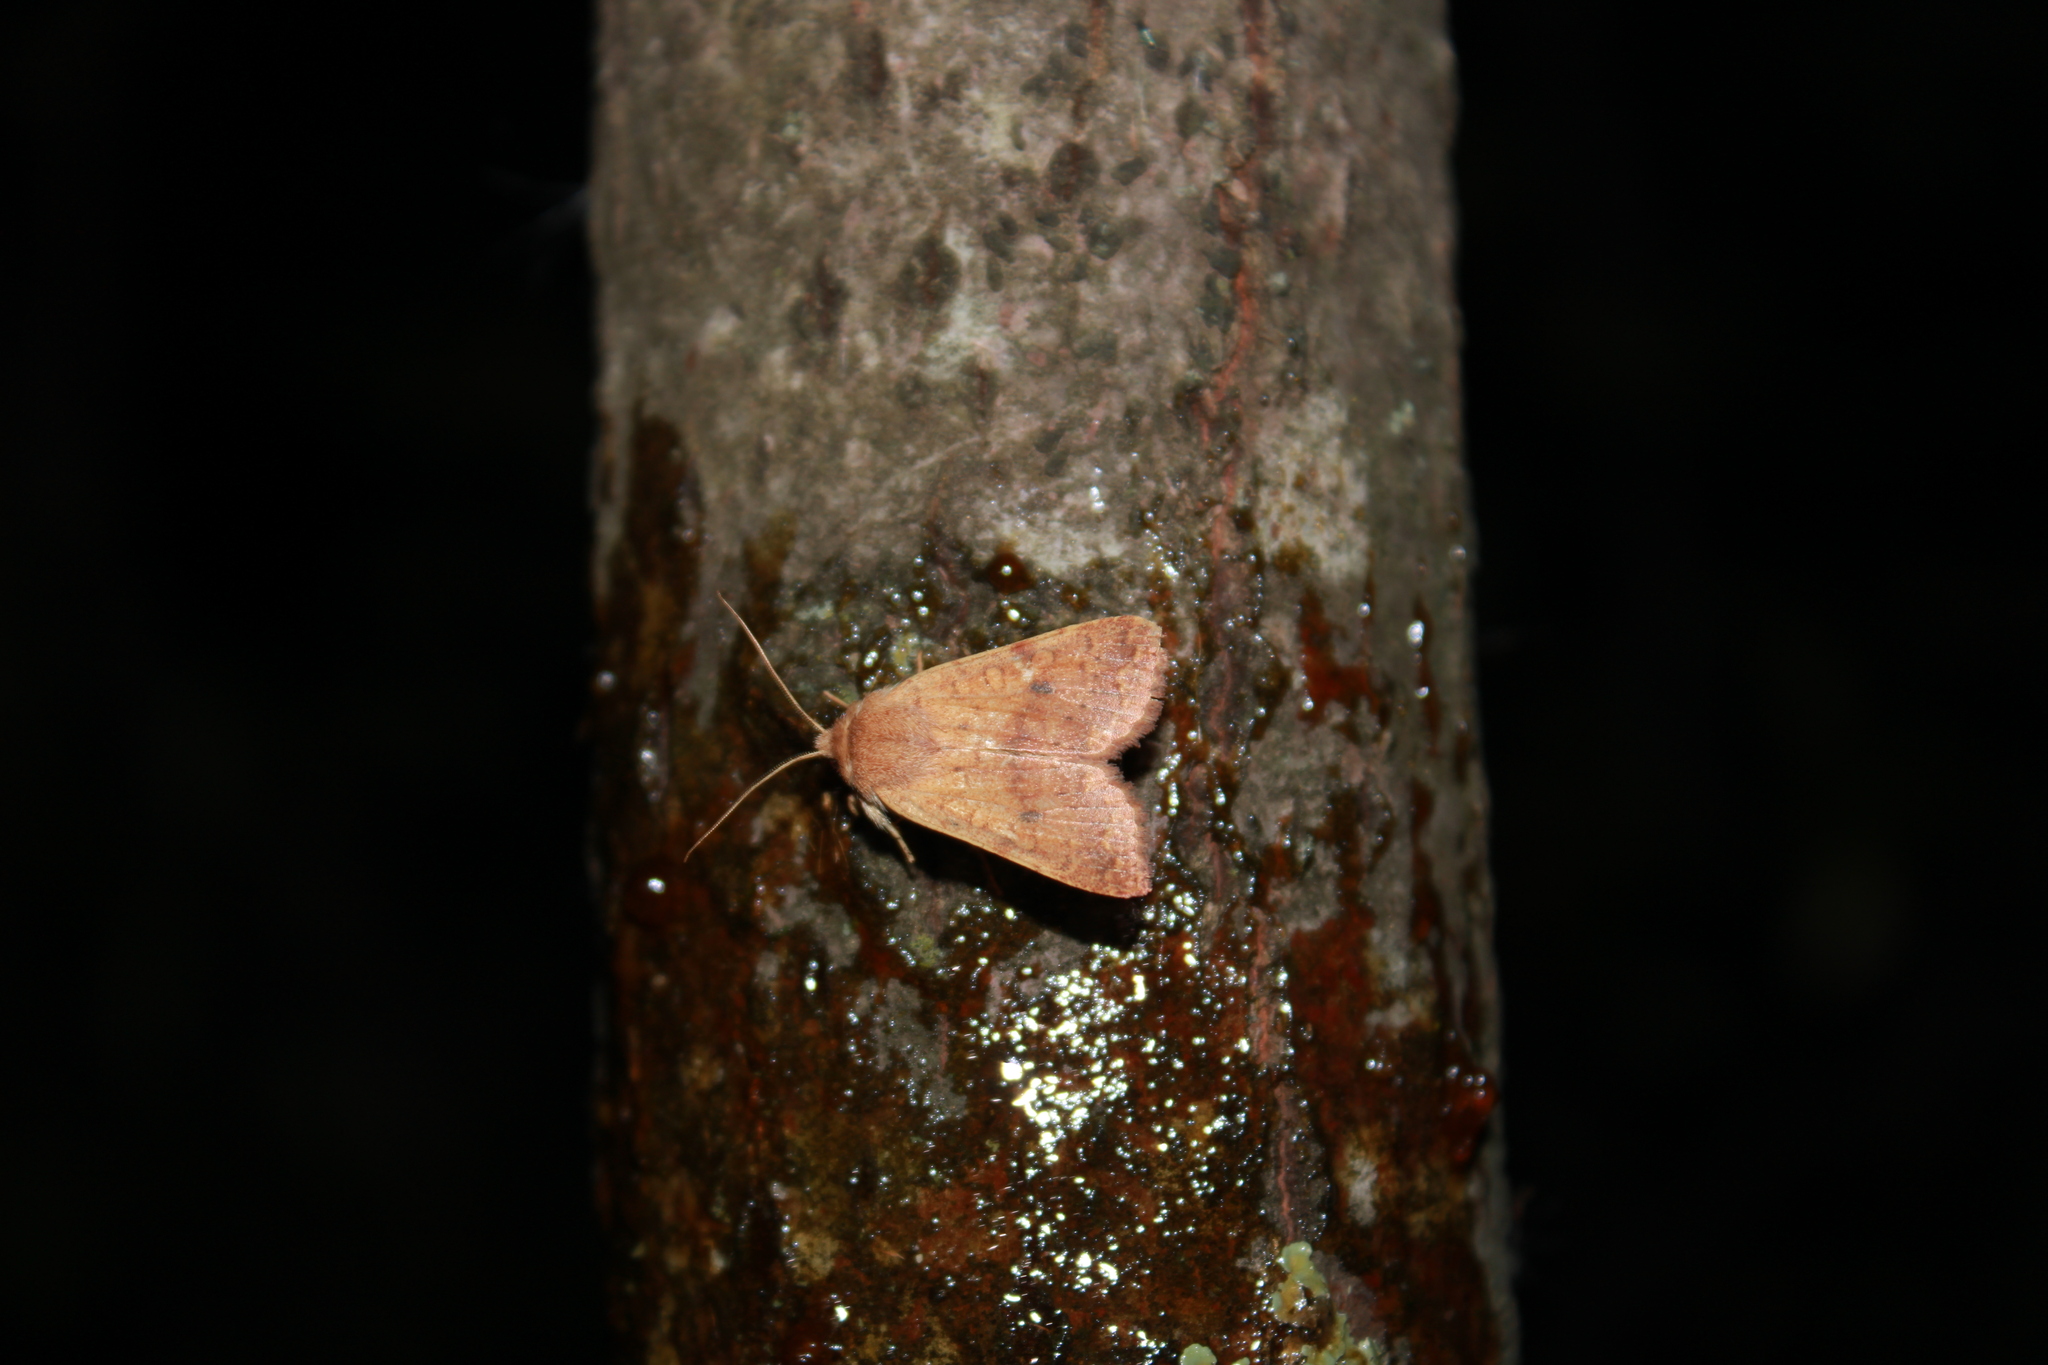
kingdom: Animalia
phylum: Arthropoda
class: Insecta
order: Lepidoptera
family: Noctuidae
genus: Agrochola
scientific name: Agrochola bicolorago
